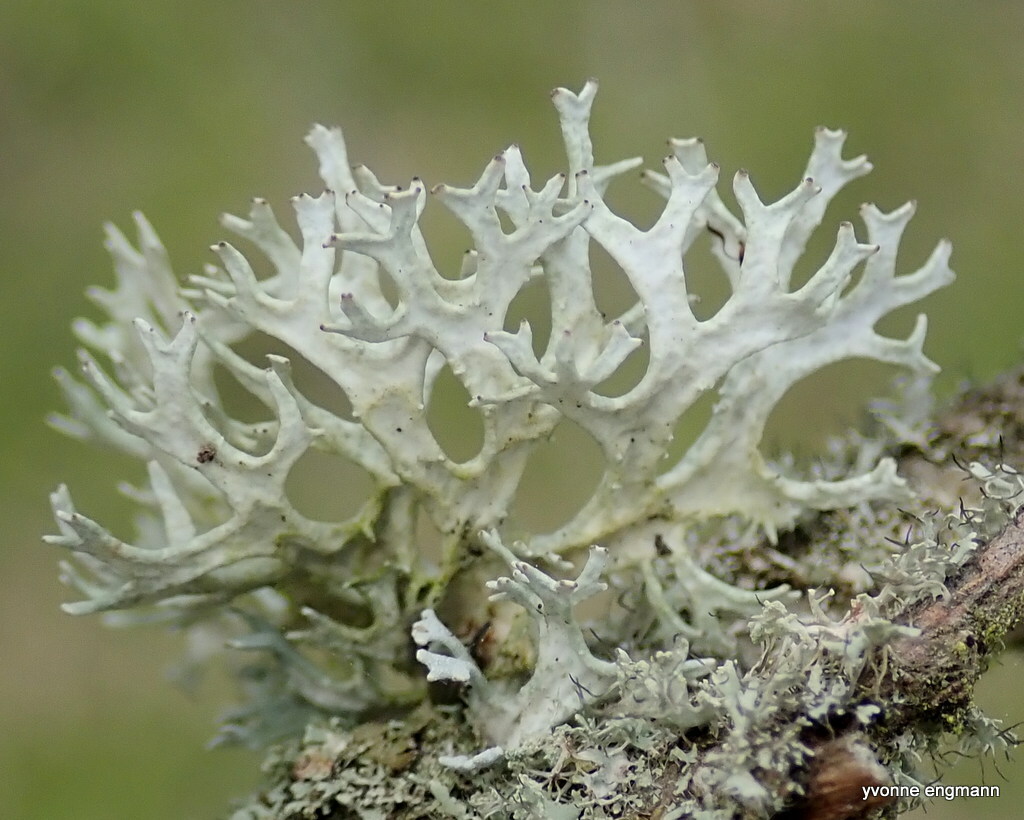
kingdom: Fungi
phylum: Ascomycota
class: Lecanoromycetes
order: Lecanorales
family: Parmeliaceae
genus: Evernia
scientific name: Evernia prunastri
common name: Oak moss
